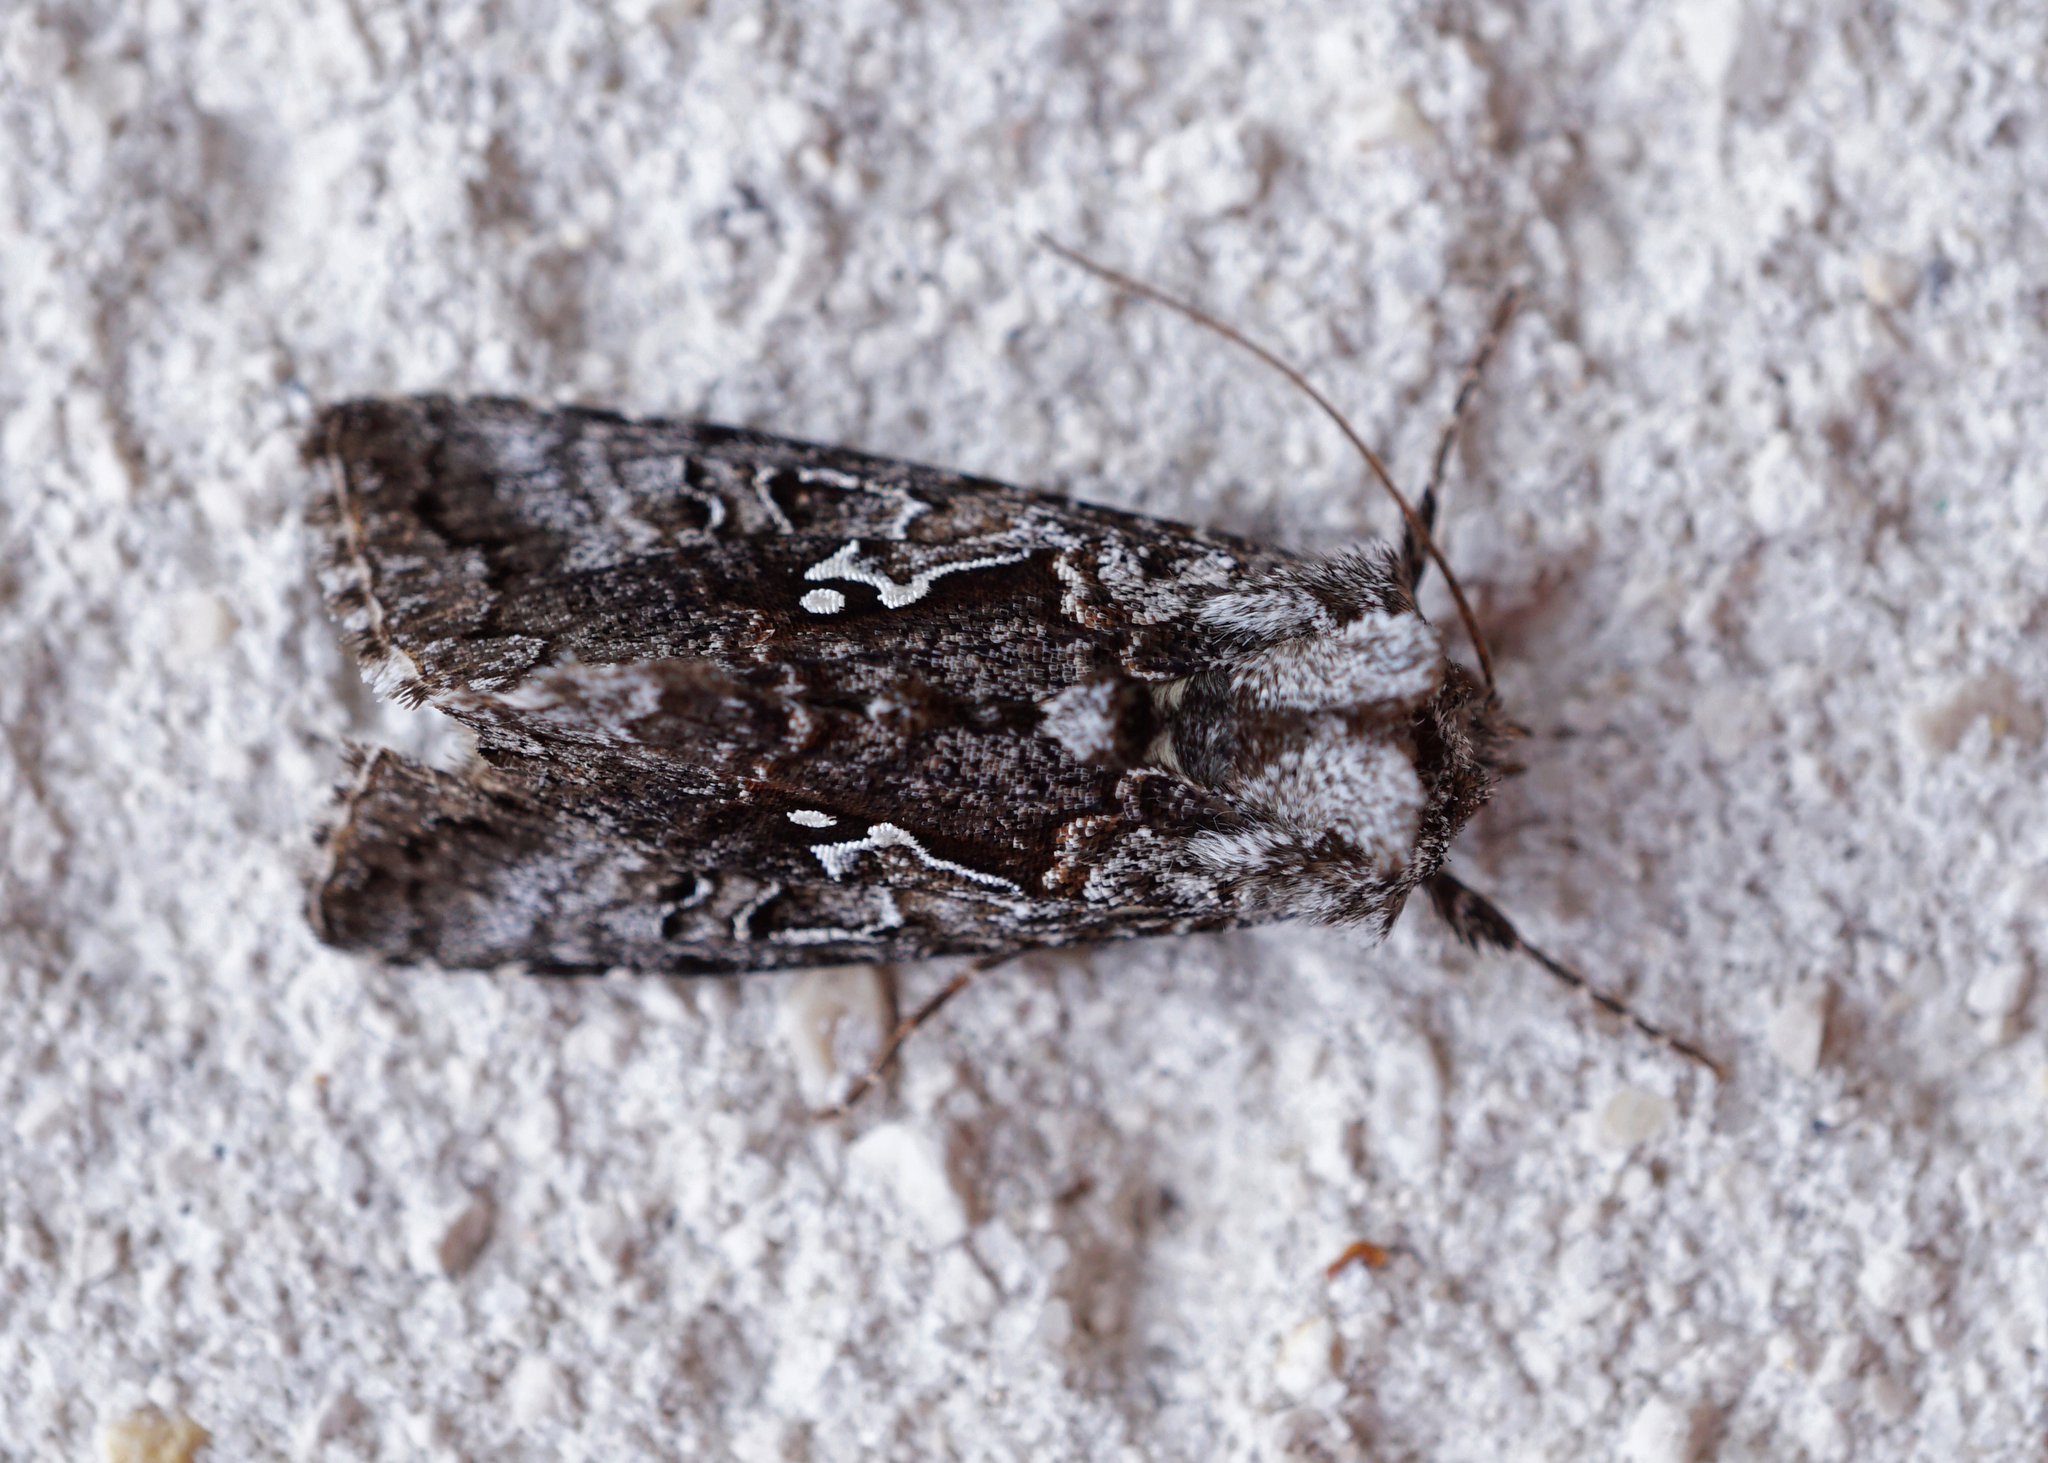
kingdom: Animalia
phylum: Arthropoda
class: Insecta
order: Lepidoptera
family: Noctuidae
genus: Syngrapha
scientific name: Syngrapha interrogationis
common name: Scarce silver y
